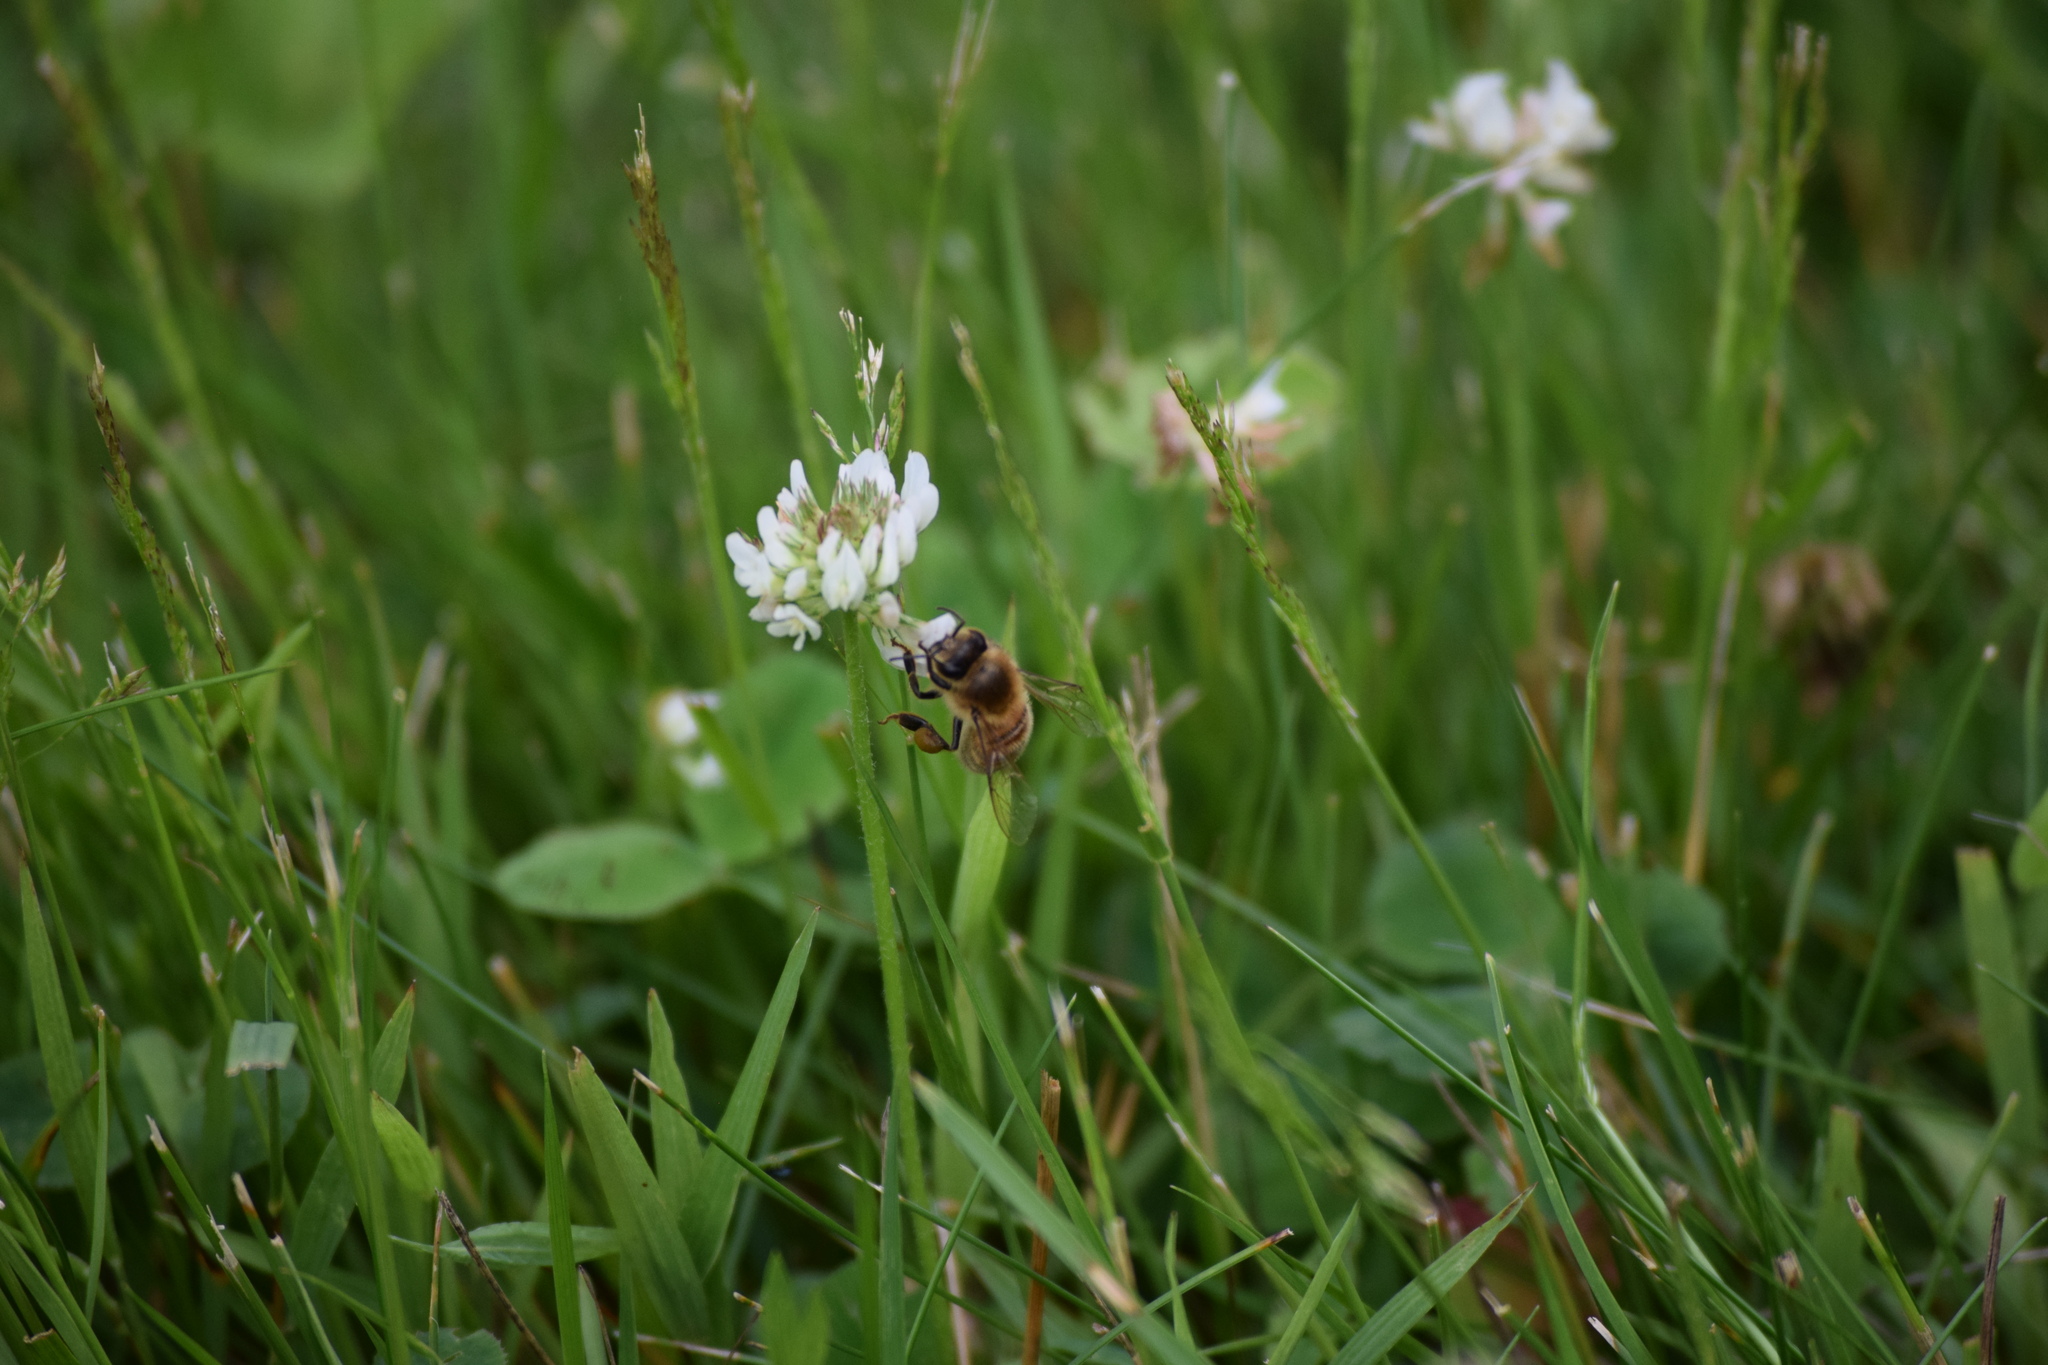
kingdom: Animalia
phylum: Arthropoda
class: Insecta
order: Hymenoptera
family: Apidae
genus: Apis
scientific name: Apis mellifera
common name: Honey bee
